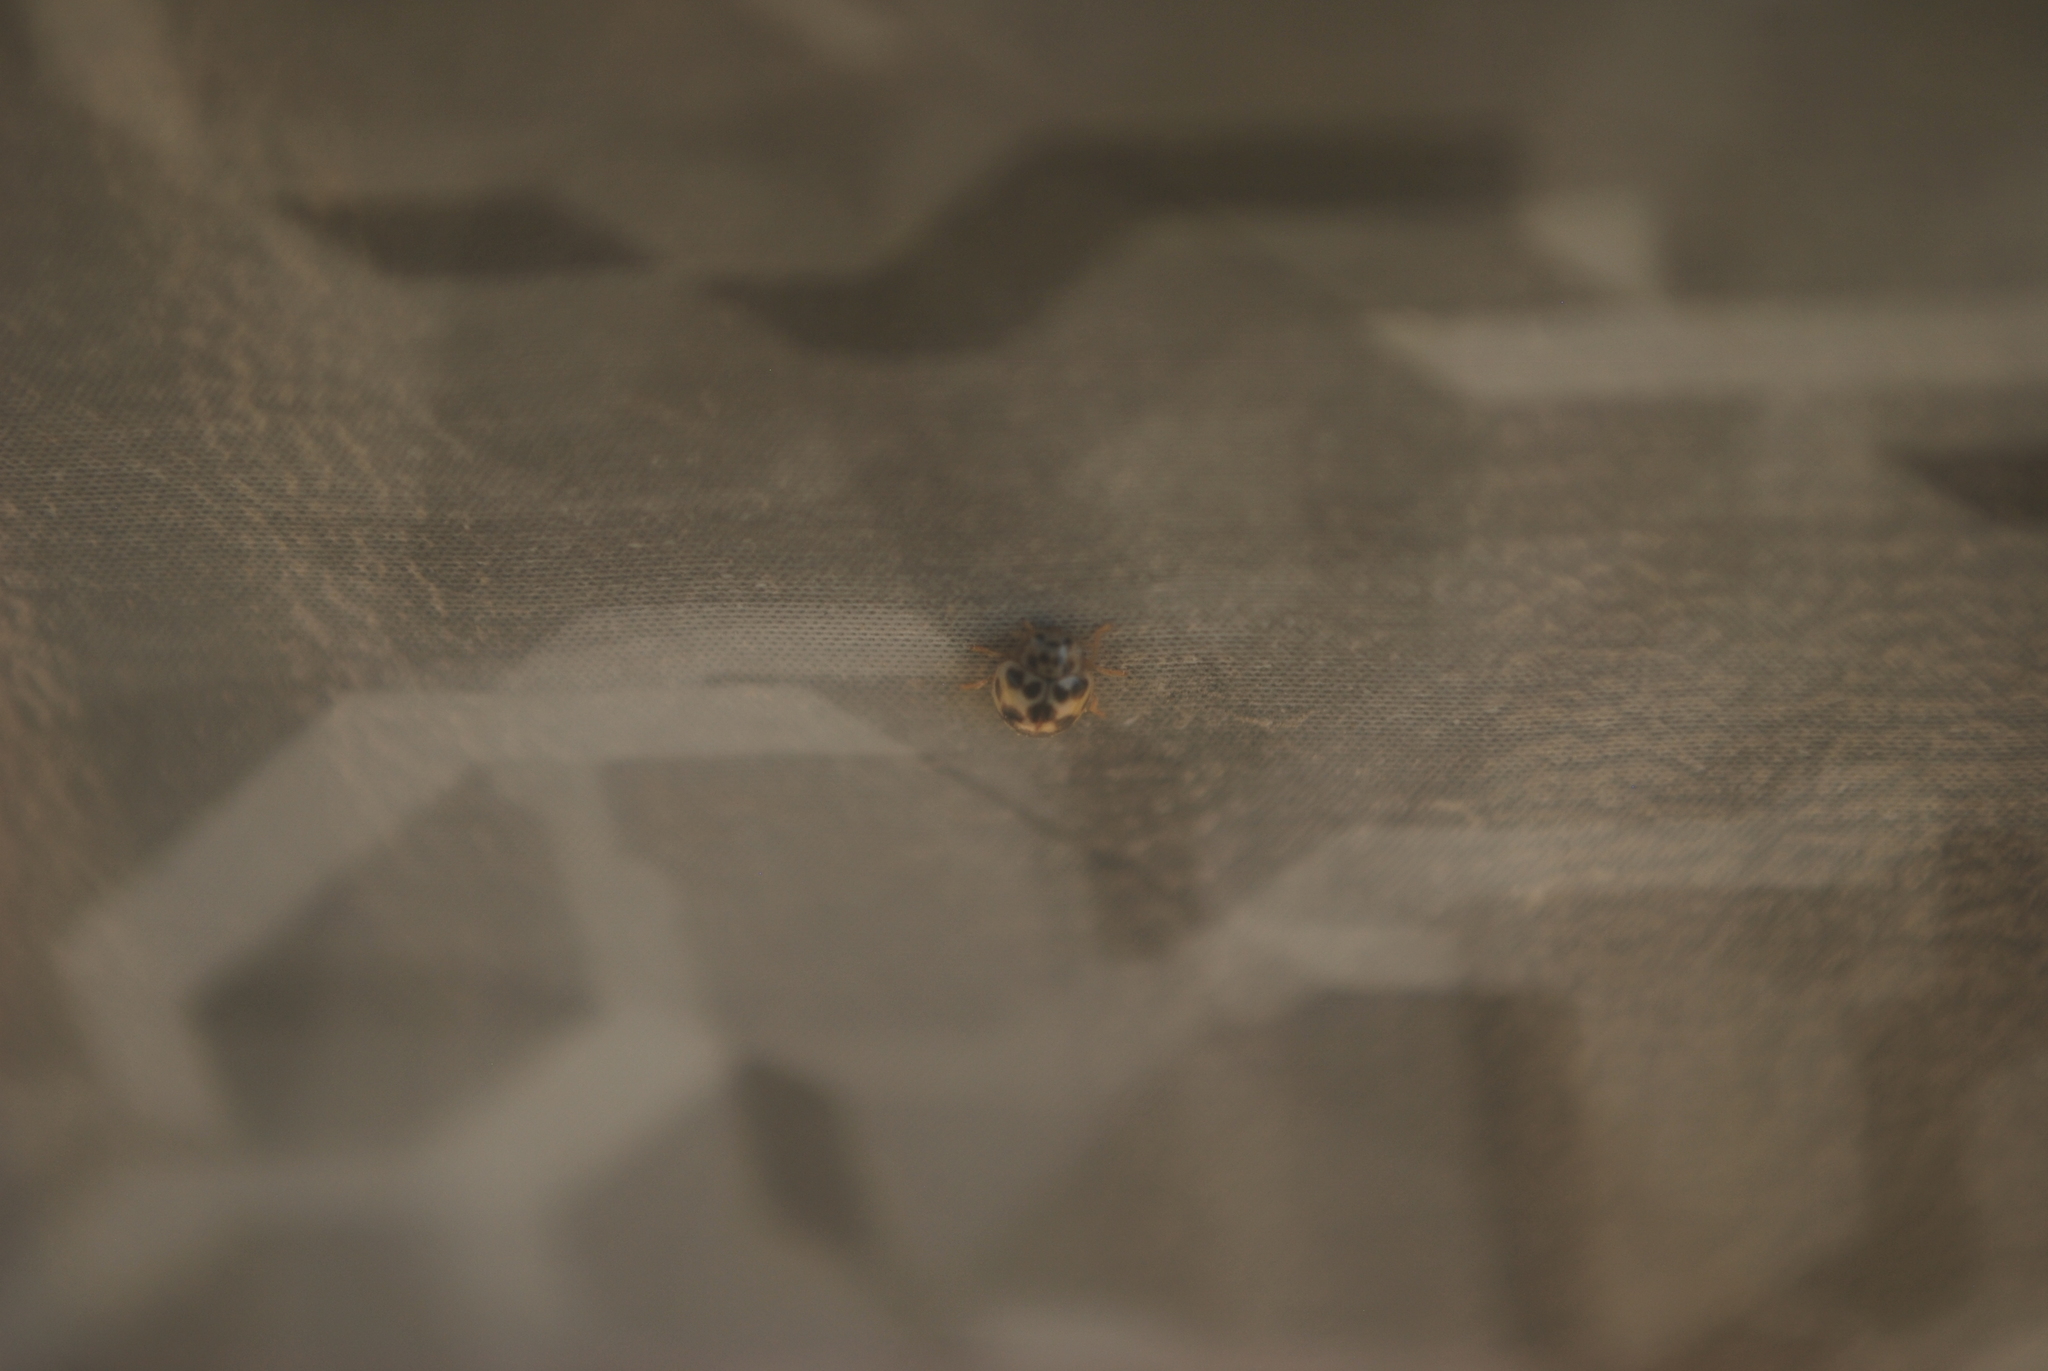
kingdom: Animalia
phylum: Arthropoda
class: Insecta
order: Coleoptera
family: Coccinellidae
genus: Psyllobora
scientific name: Psyllobora vigintimaculata
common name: Ladybird beetle
